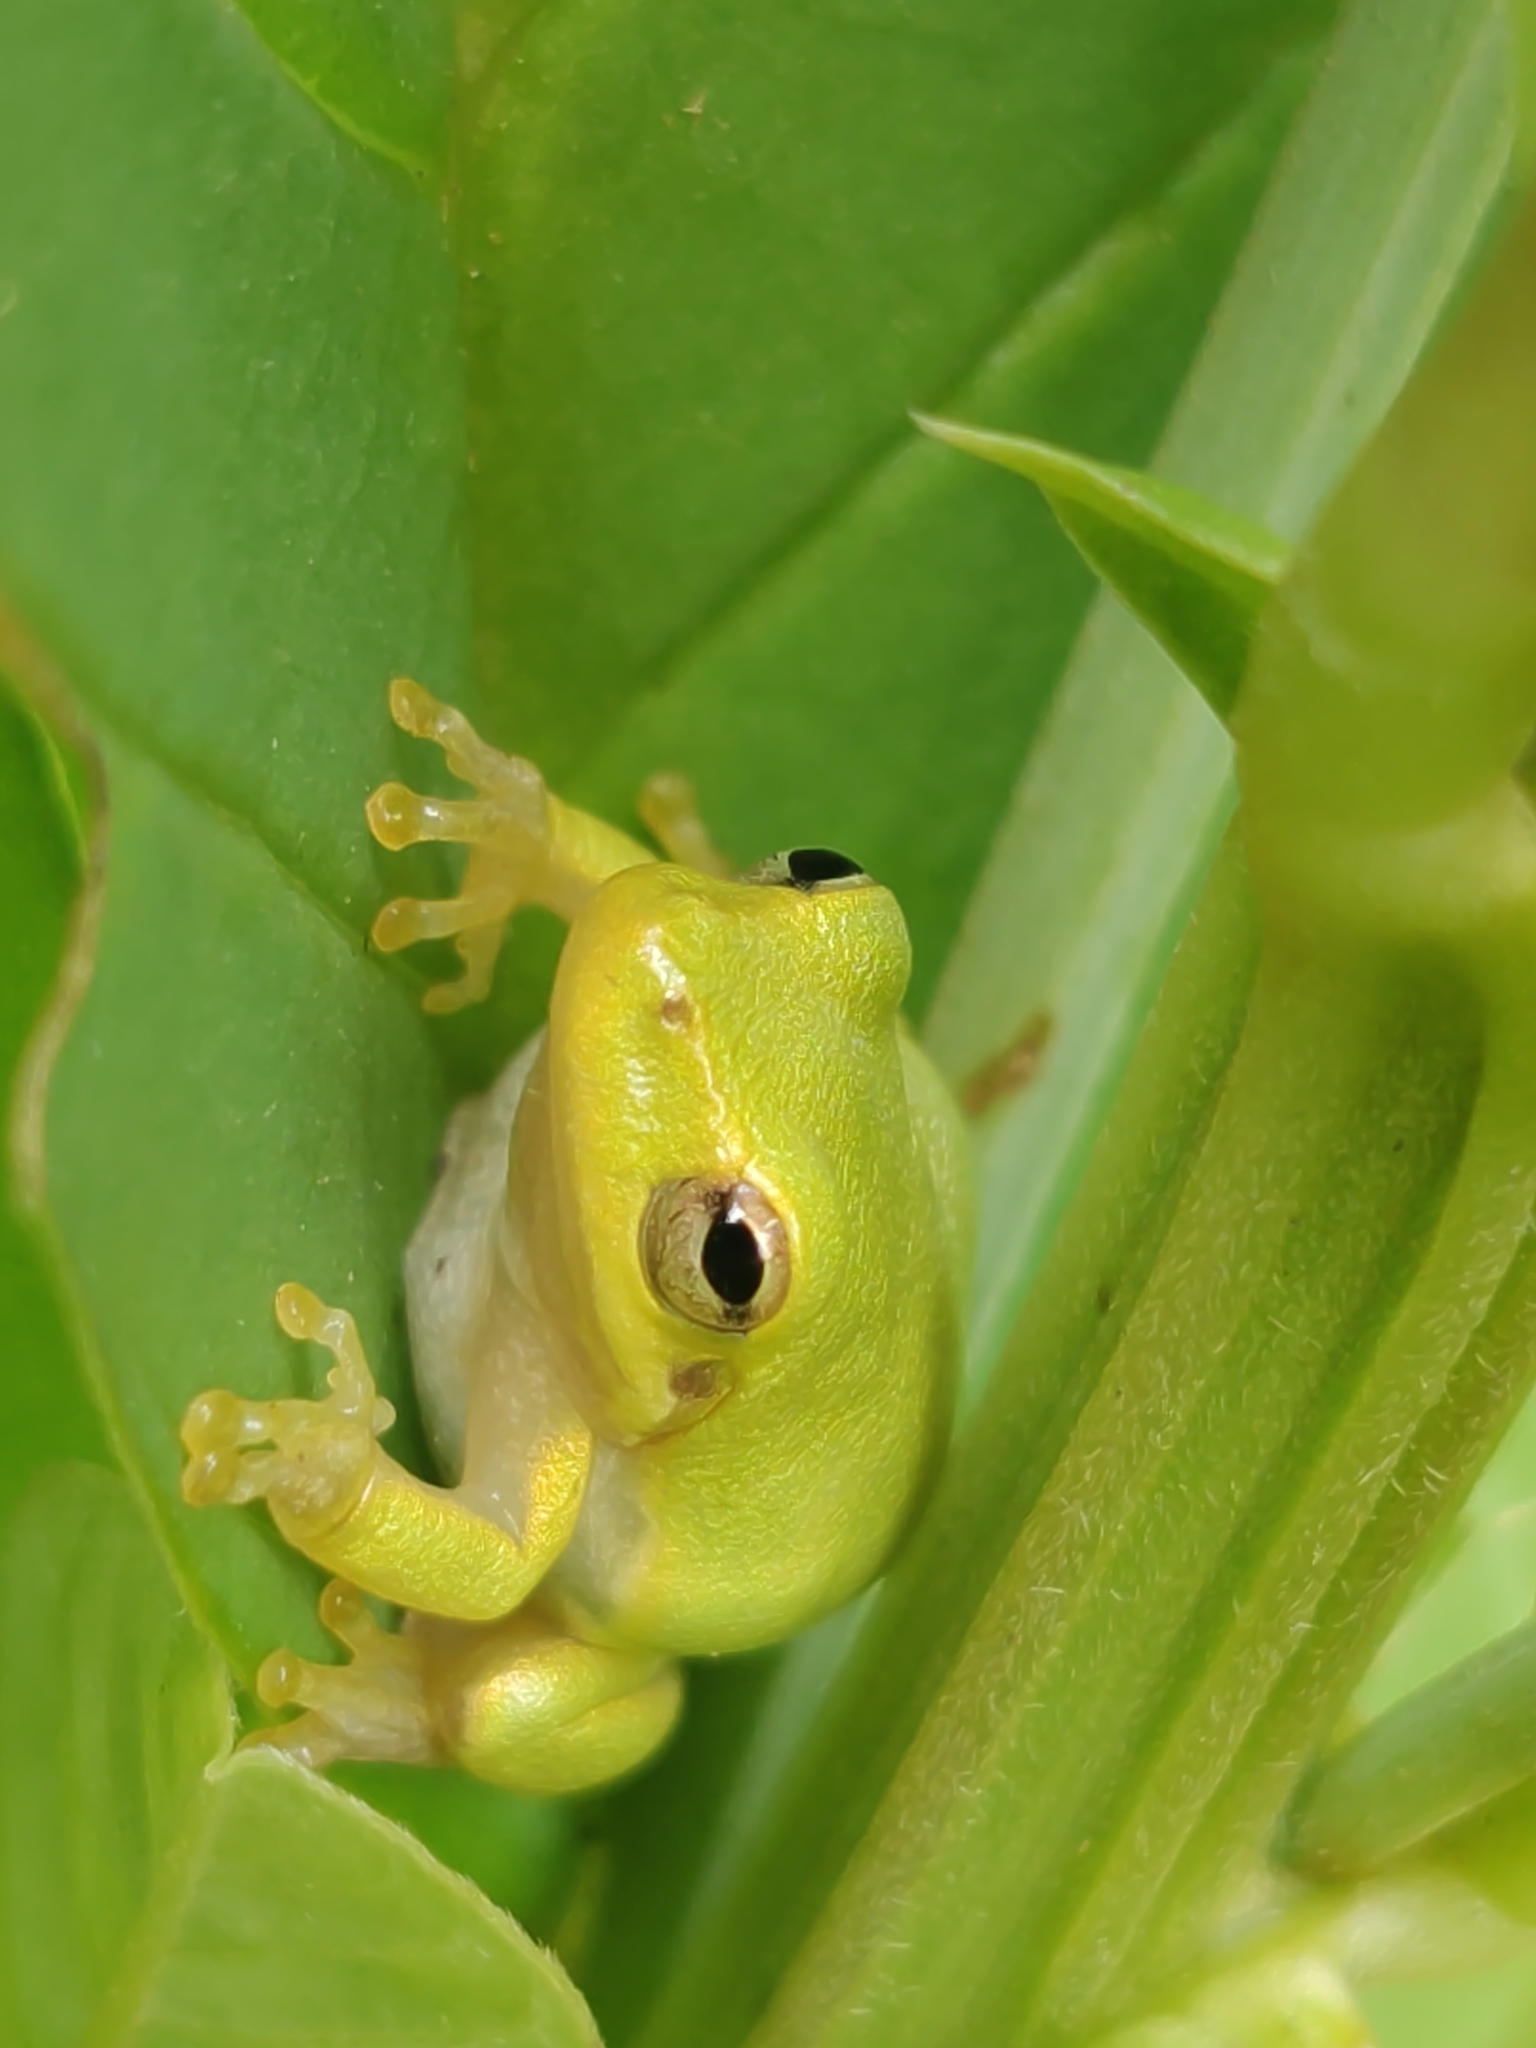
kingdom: Animalia
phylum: Chordata
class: Amphibia
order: Anura
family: Hylidae
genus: Dryophytes
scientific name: Dryophytes squirellus
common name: Squirrel treefrog
